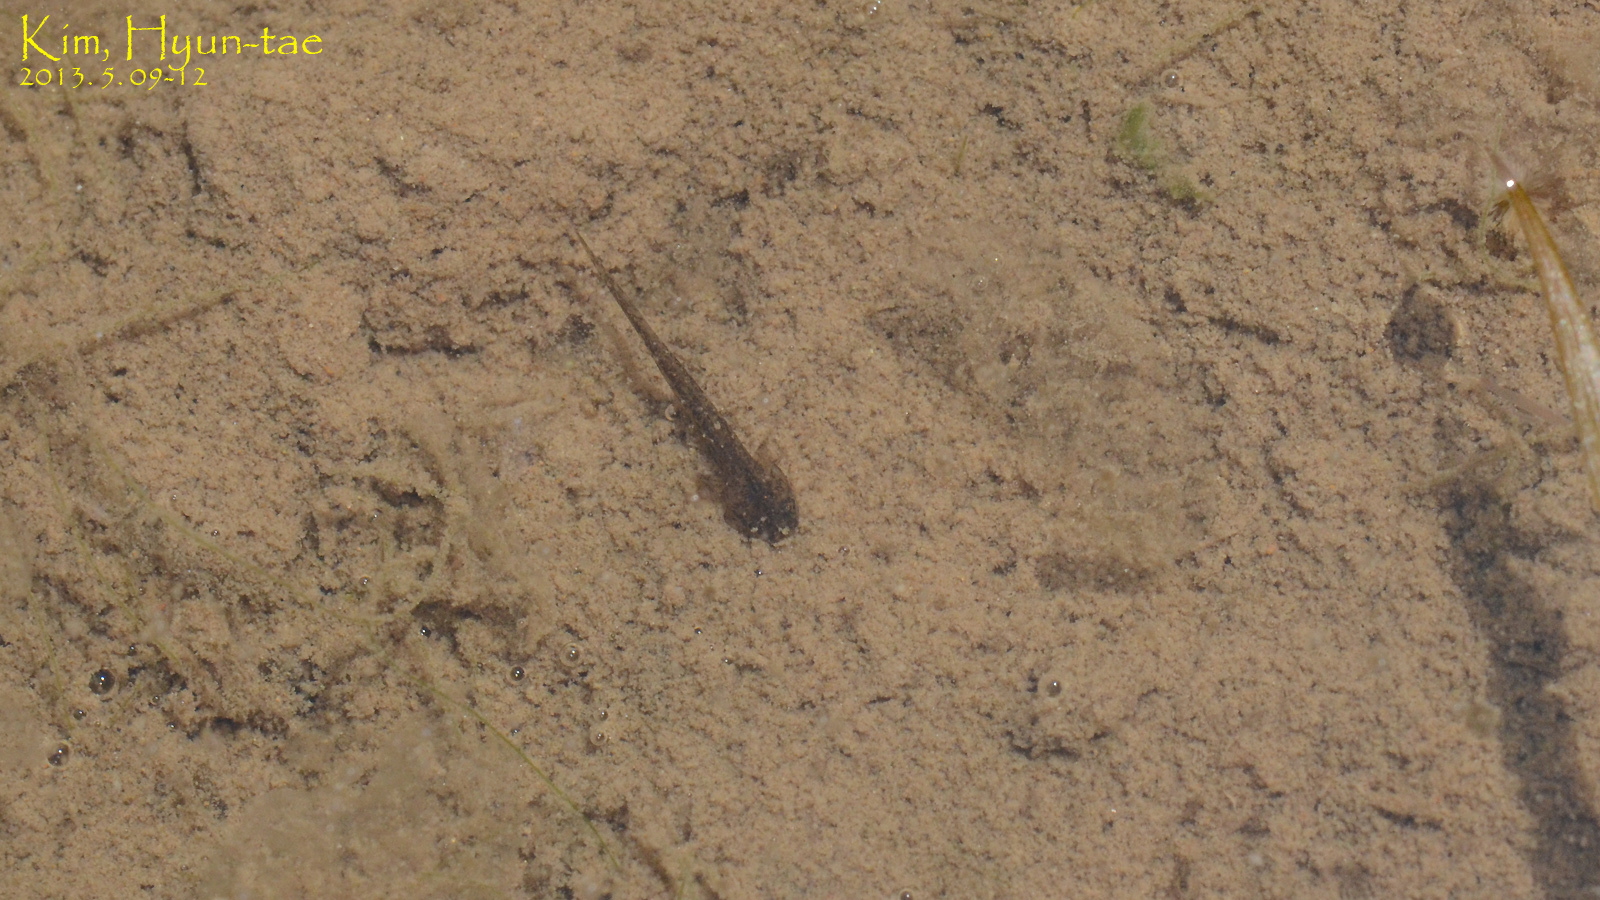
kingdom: Animalia
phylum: Chordata
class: Amphibia
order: Caudata
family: Hynobiidae
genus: Hynobius
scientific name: Hynobius quelpaertensis
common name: Cheju salamander
